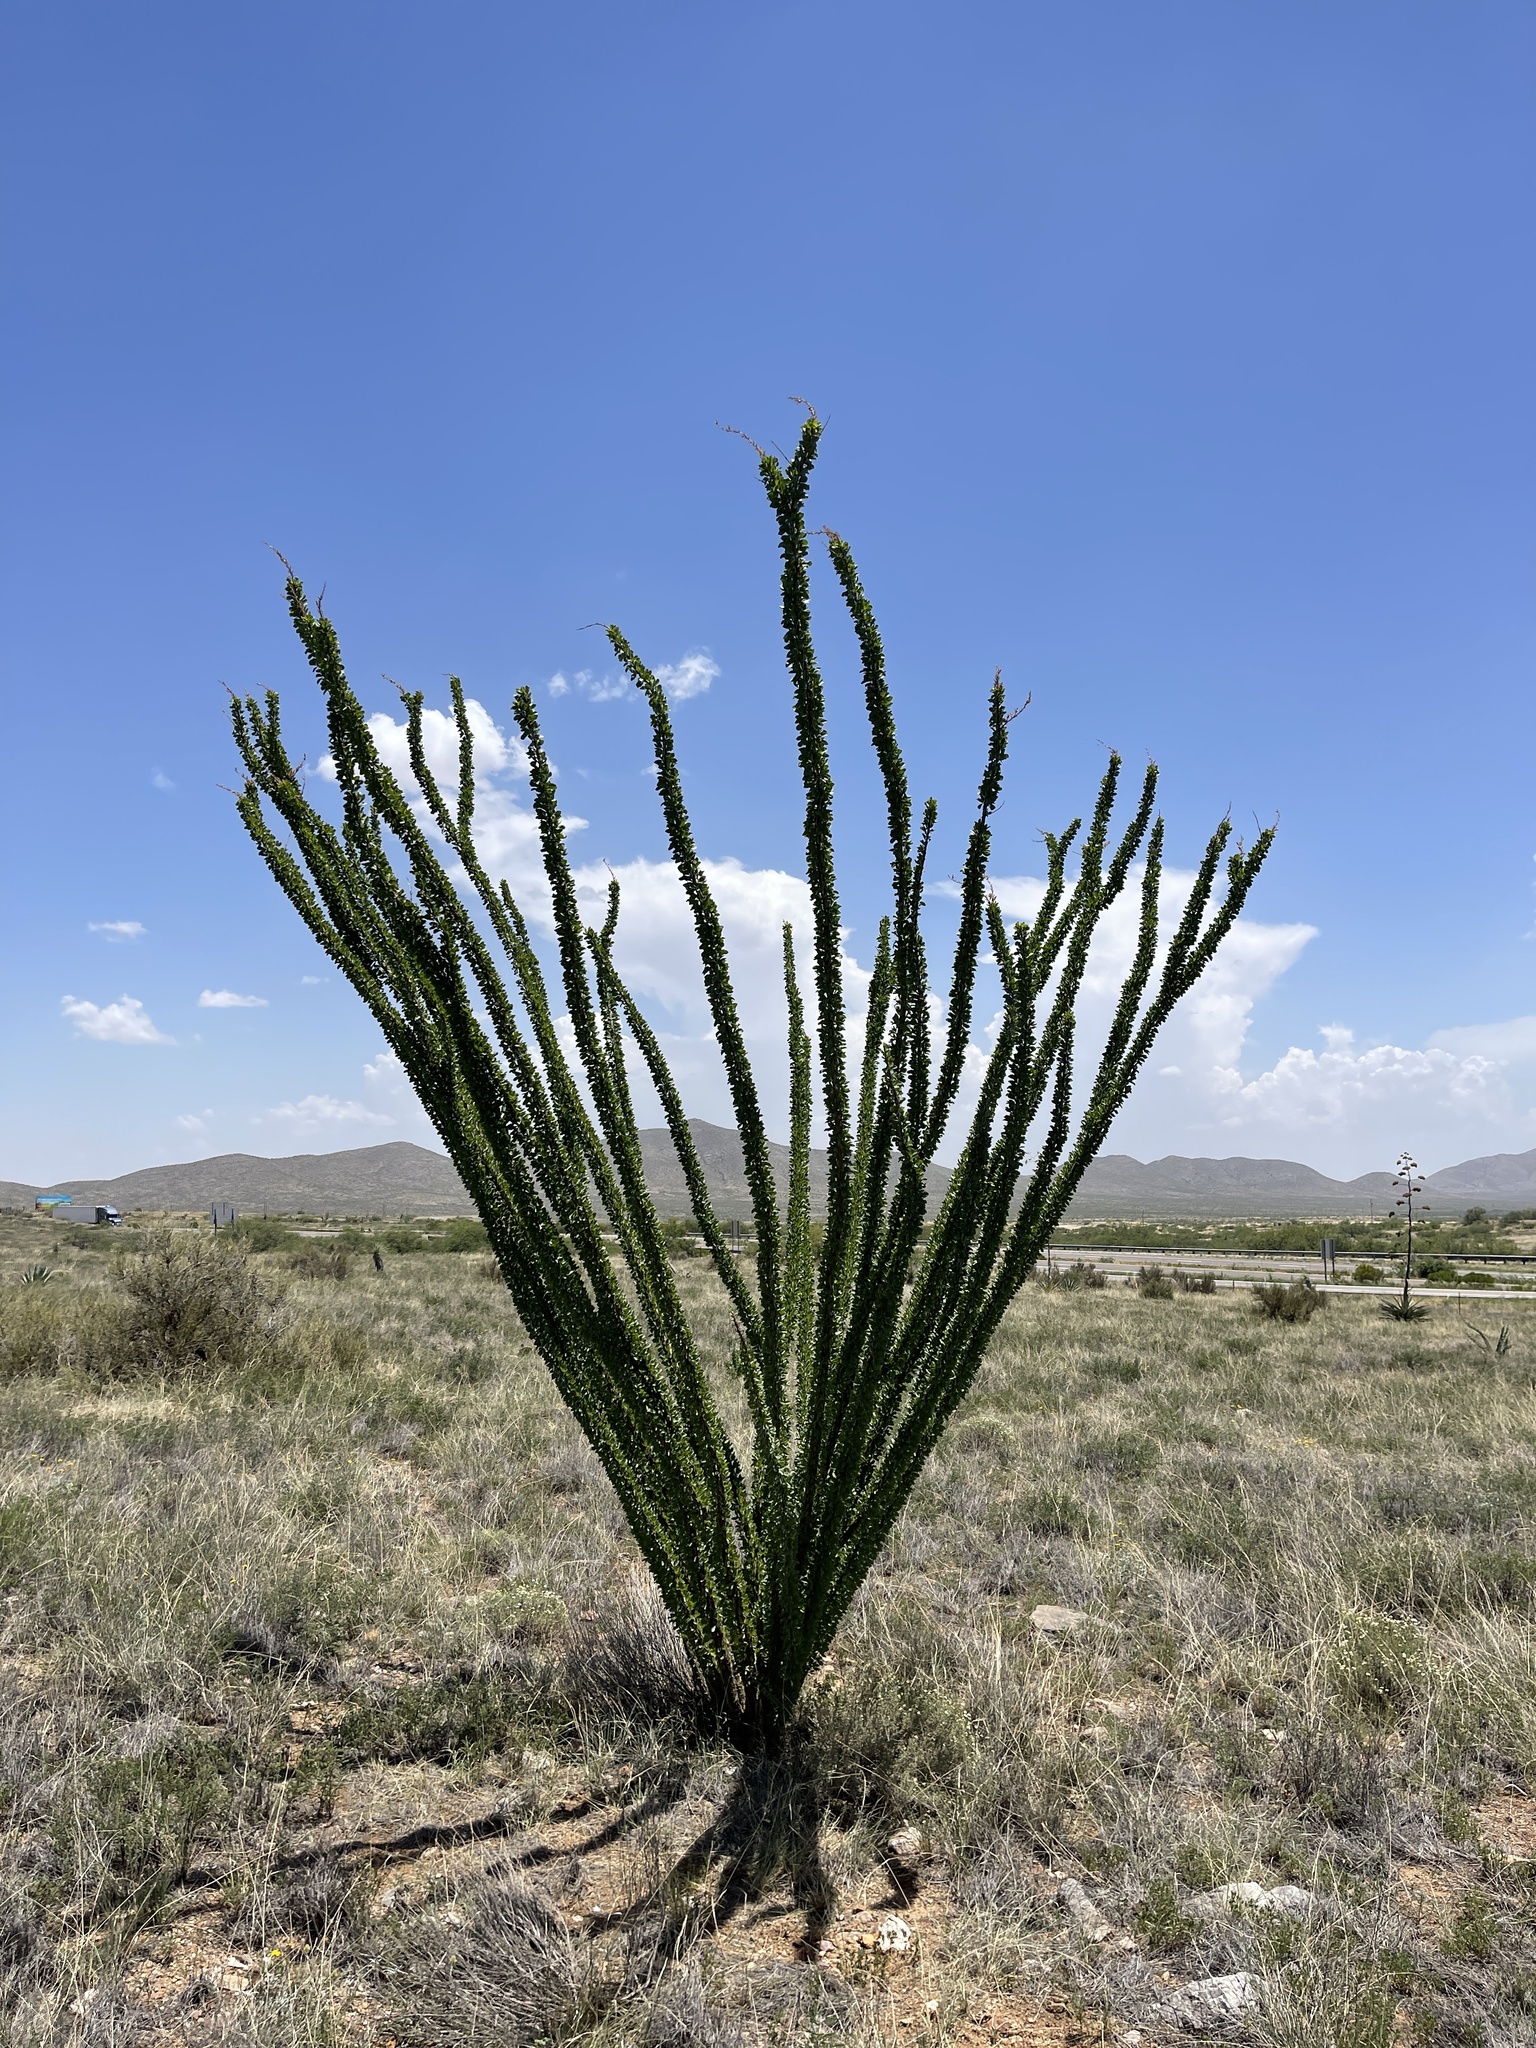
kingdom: Plantae
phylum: Tracheophyta
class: Magnoliopsida
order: Ericales
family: Fouquieriaceae
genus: Fouquieria
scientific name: Fouquieria splendens
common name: Vine-cactus
